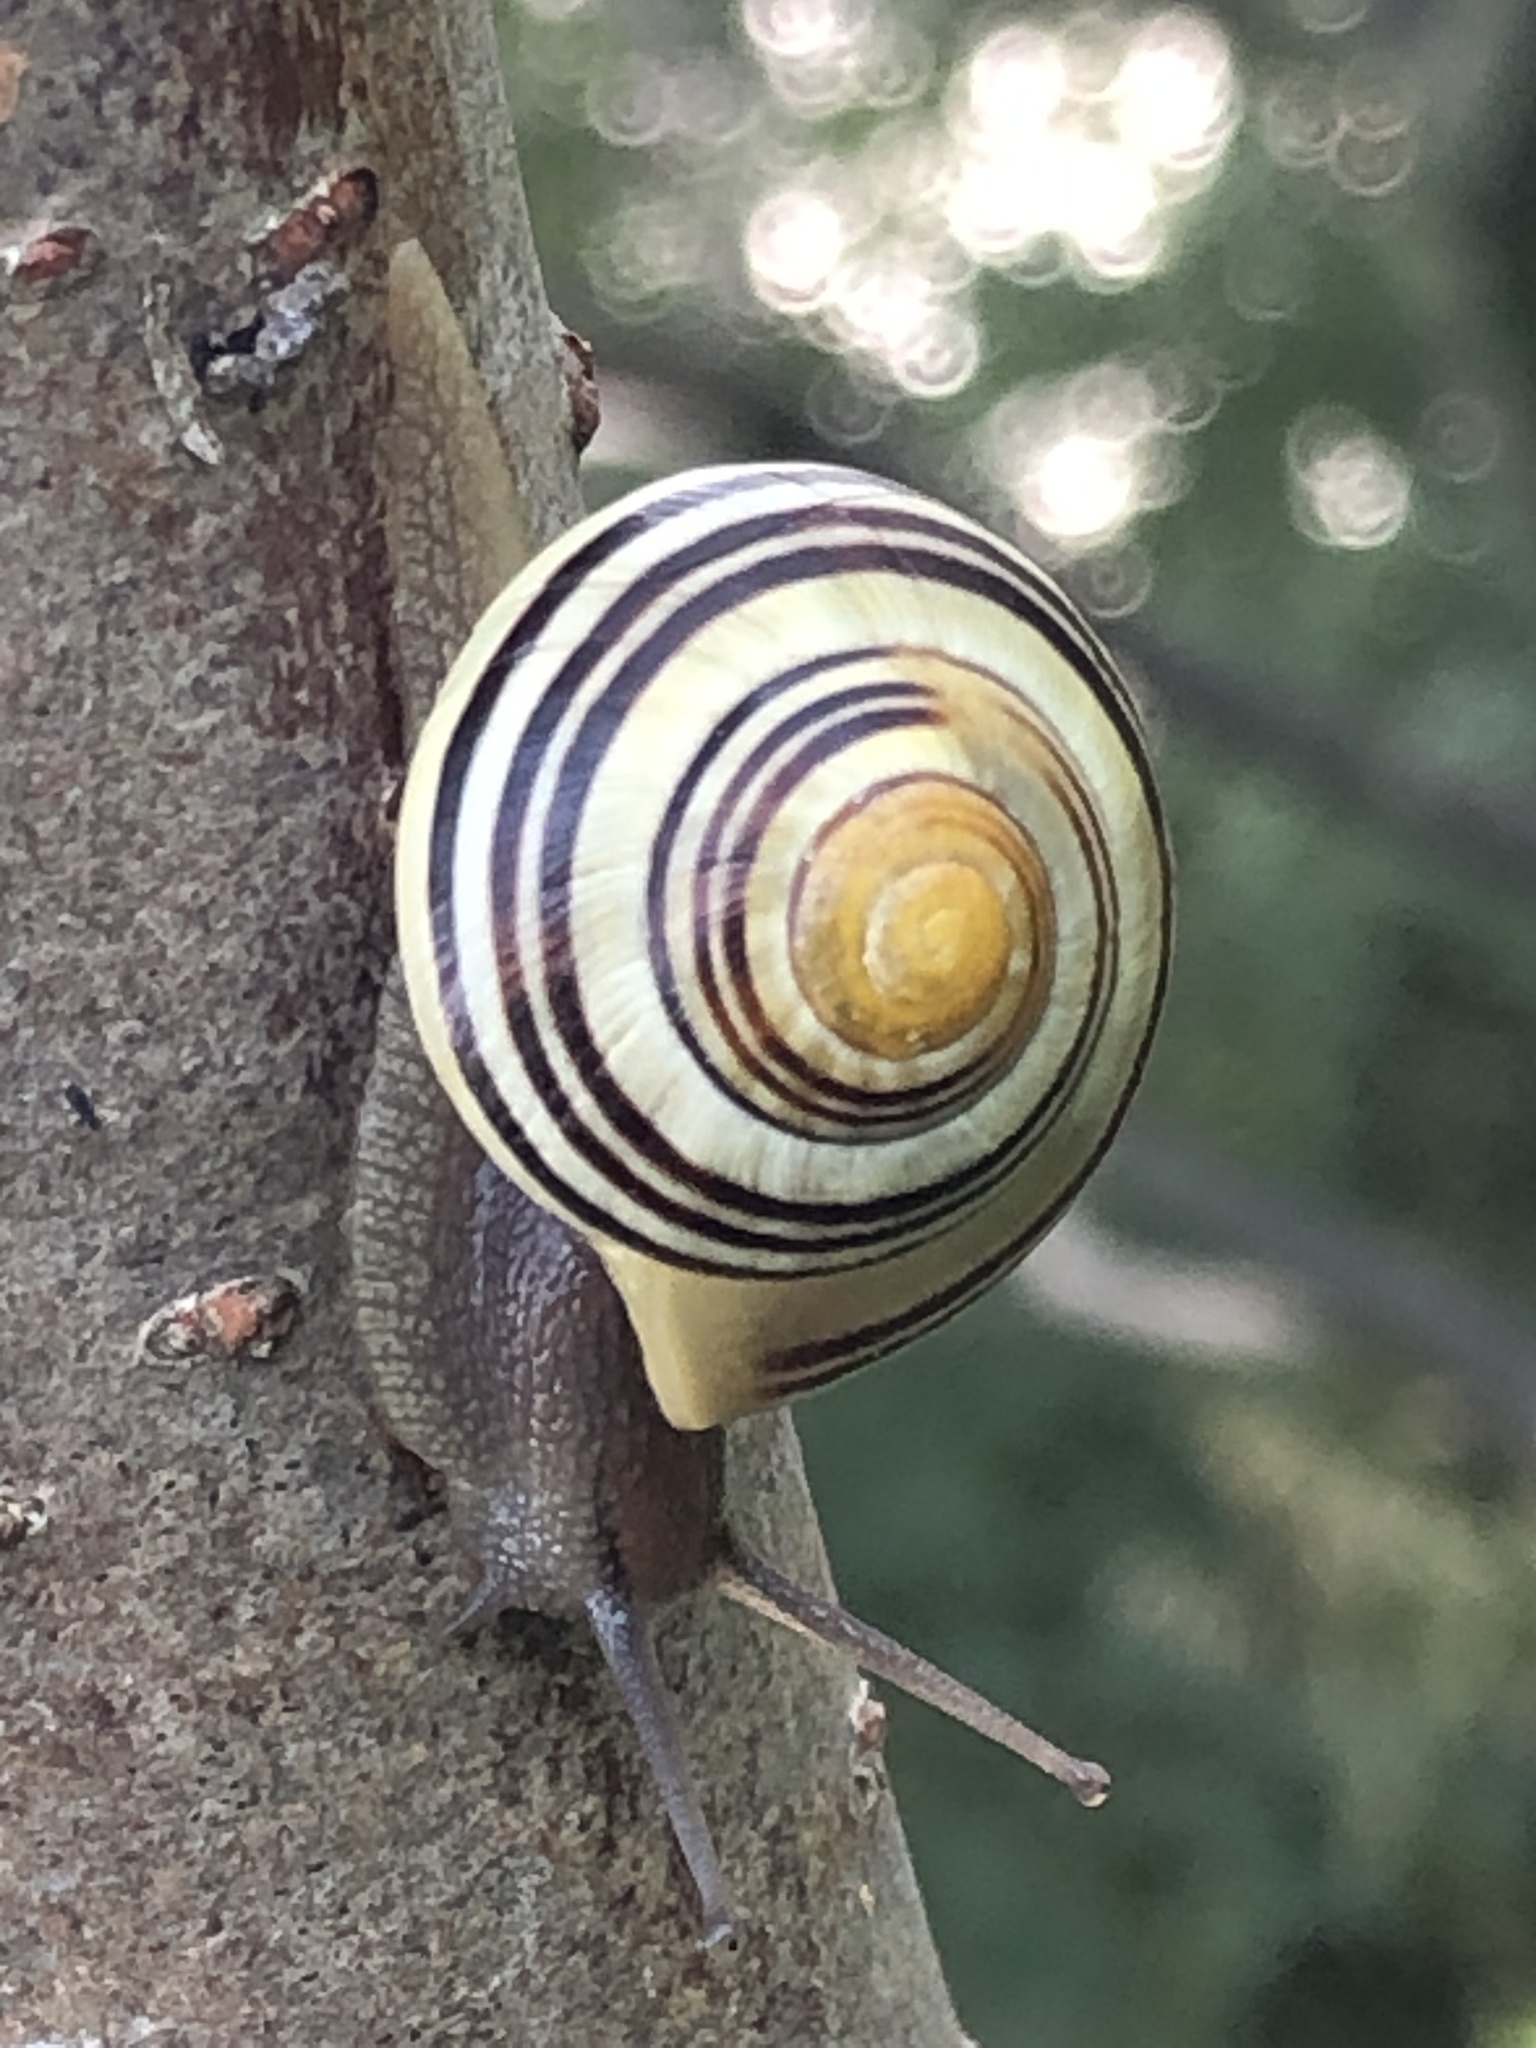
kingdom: Animalia
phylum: Mollusca
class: Gastropoda
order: Stylommatophora
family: Helicidae
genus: Cepaea
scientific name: Cepaea
